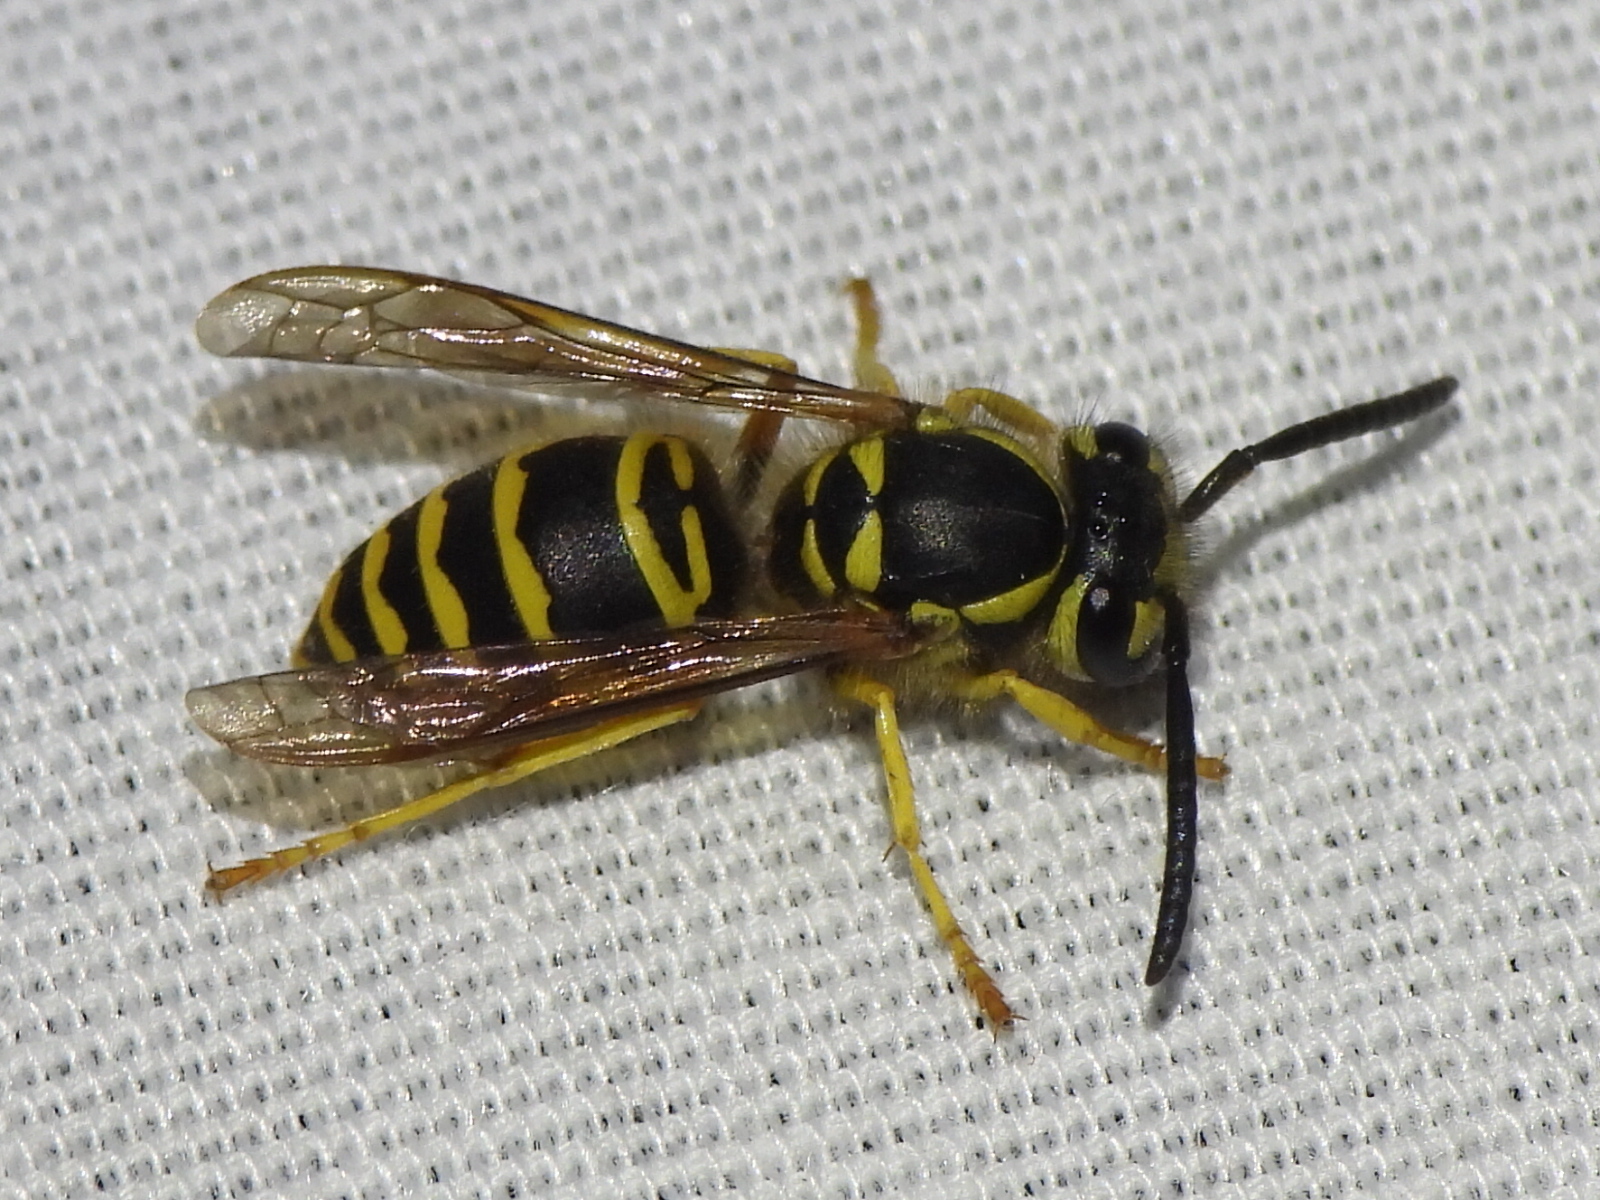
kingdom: Animalia
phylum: Arthropoda
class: Insecta
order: Hymenoptera
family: Vespidae
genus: Vespula
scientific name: Vespula maculifrons
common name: Eastern yellowjacket
